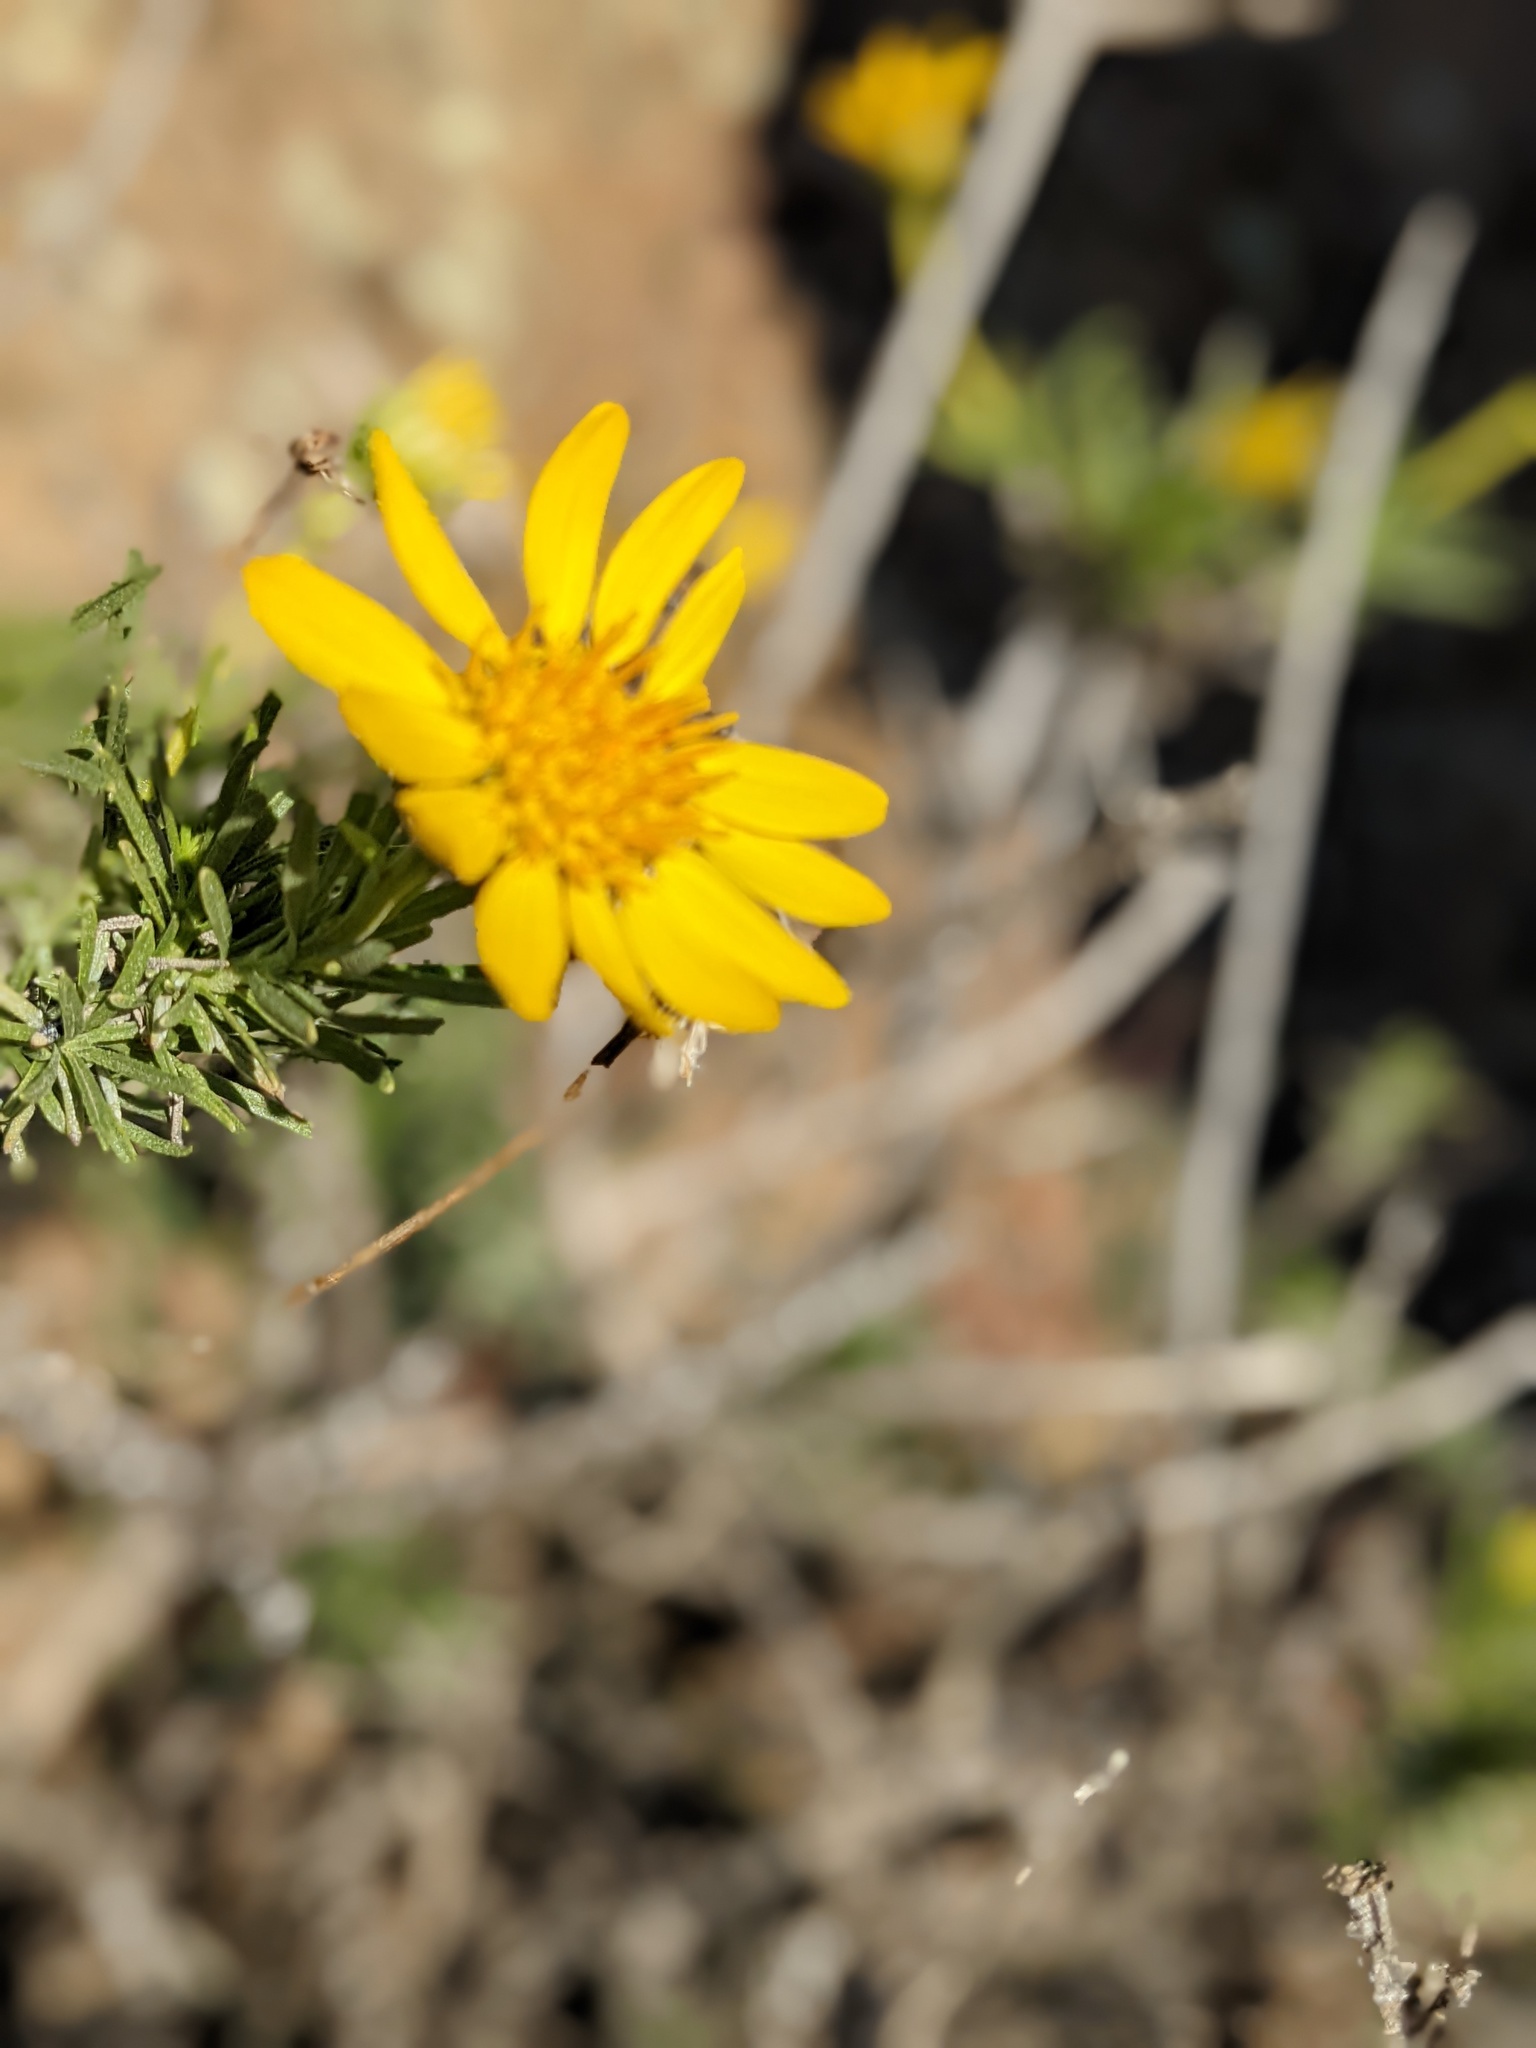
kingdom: Plantae
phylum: Tracheophyta
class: Magnoliopsida
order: Asterales
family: Asteraceae
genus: Ericameria
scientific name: Ericameria linearifolia
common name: Interior goldenbush
